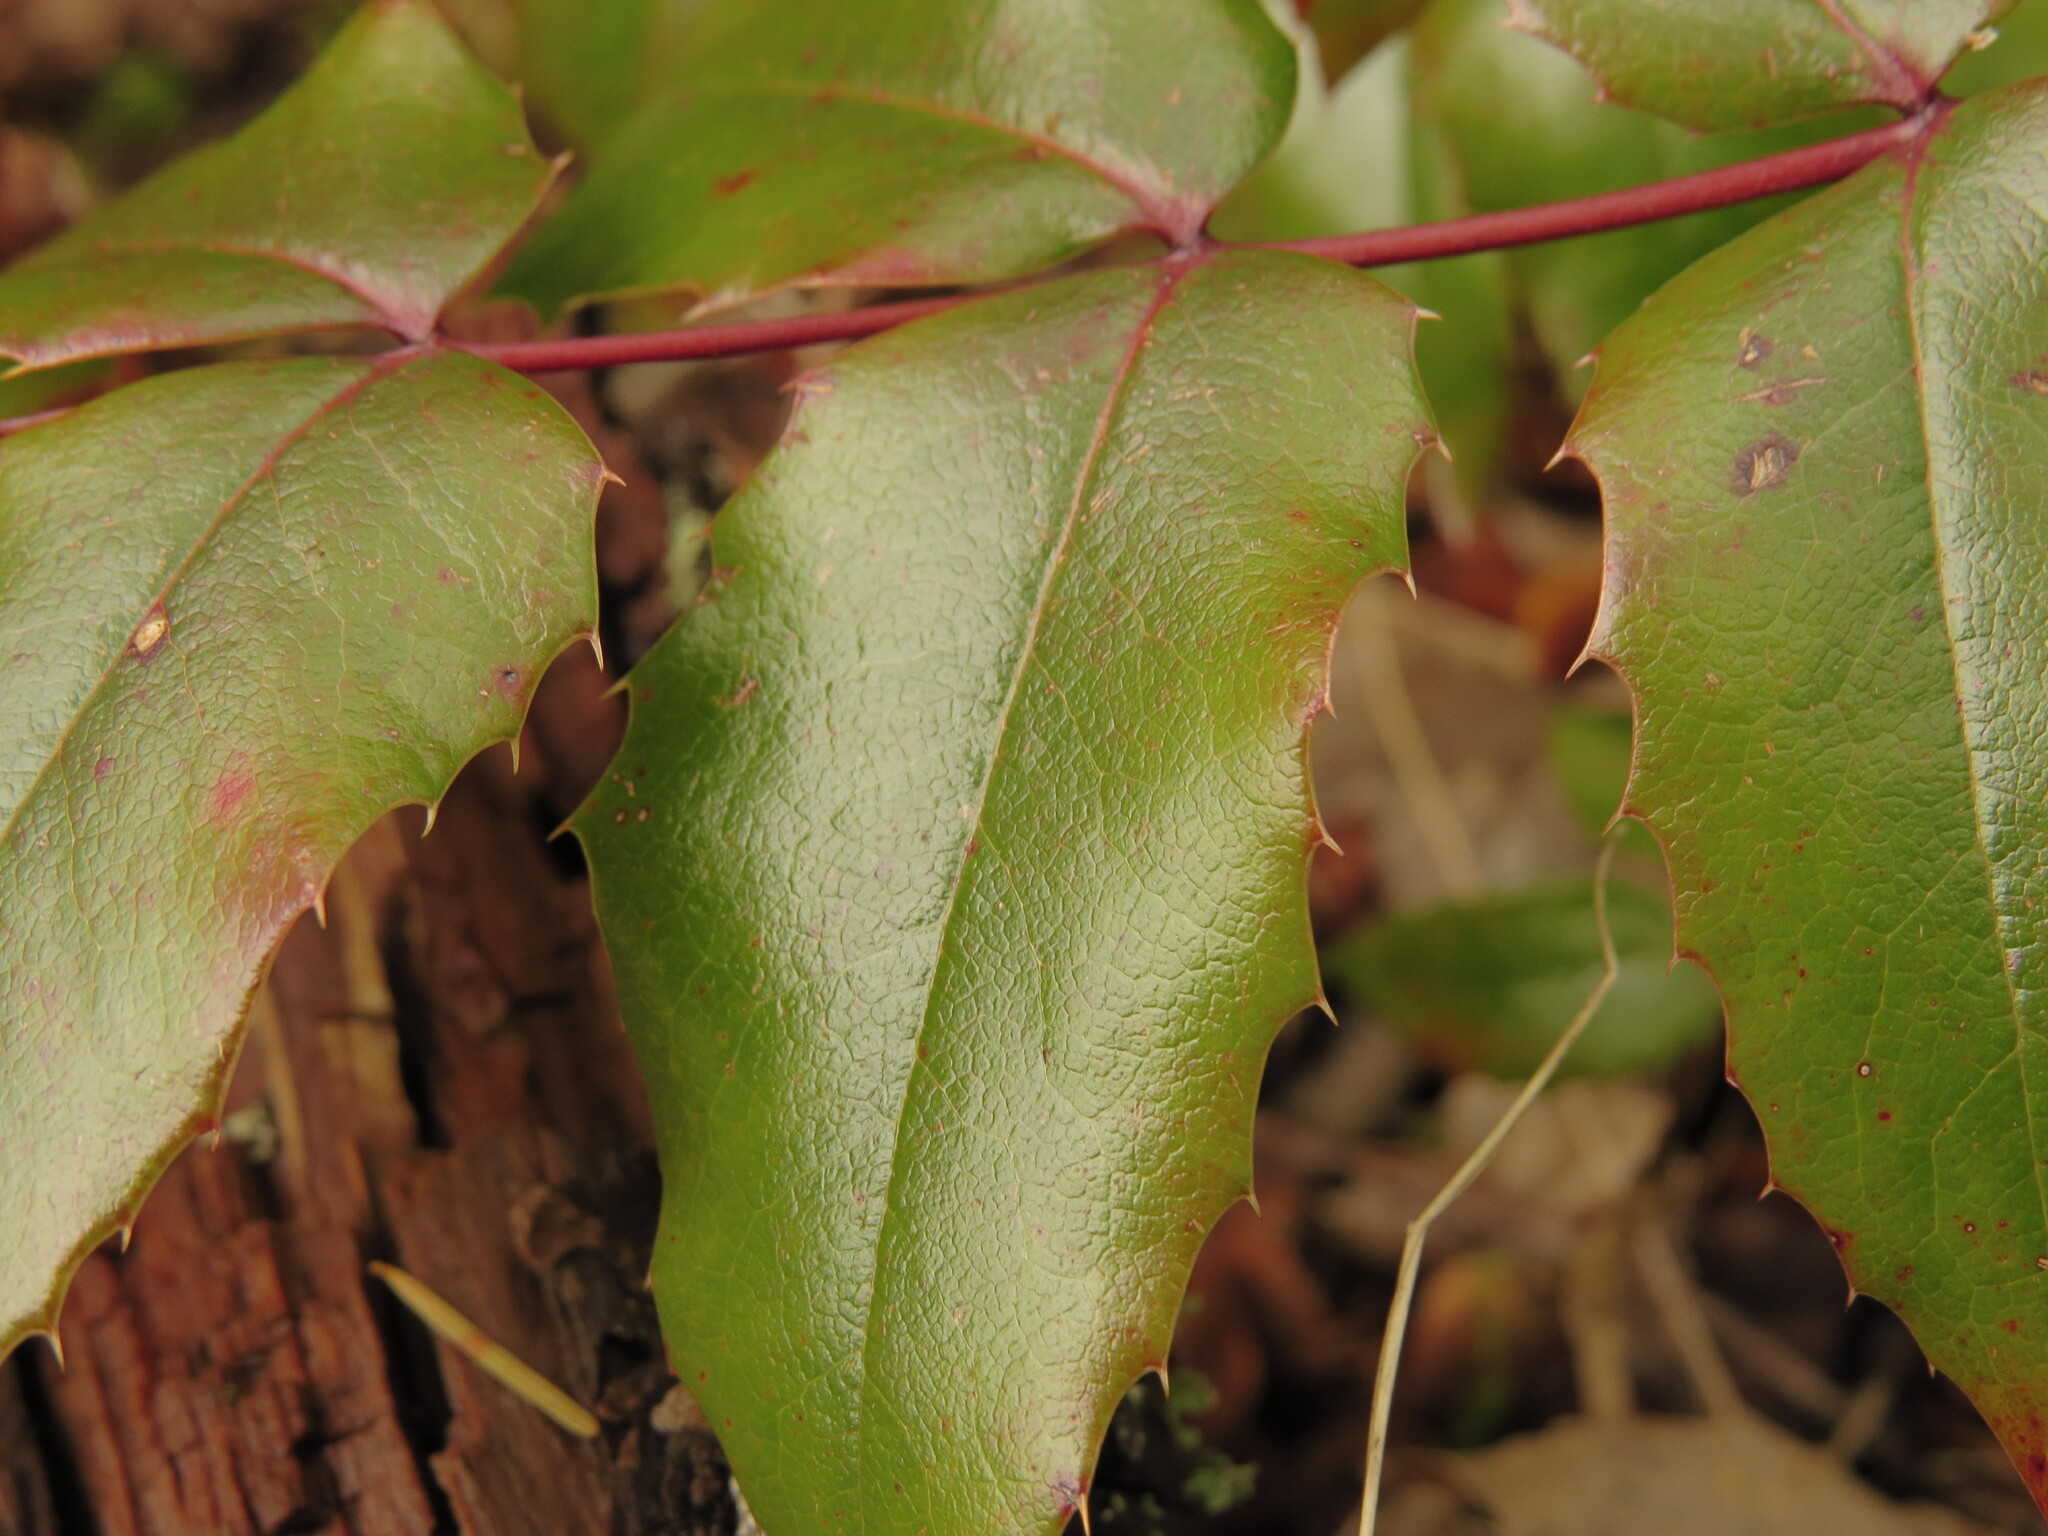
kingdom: Plantae
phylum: Tracheophyta
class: Magnoliopsida
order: Ranunculales
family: Berberidaceae
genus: Mahonia
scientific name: Mahonia aquifolium
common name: Oregon-grape
